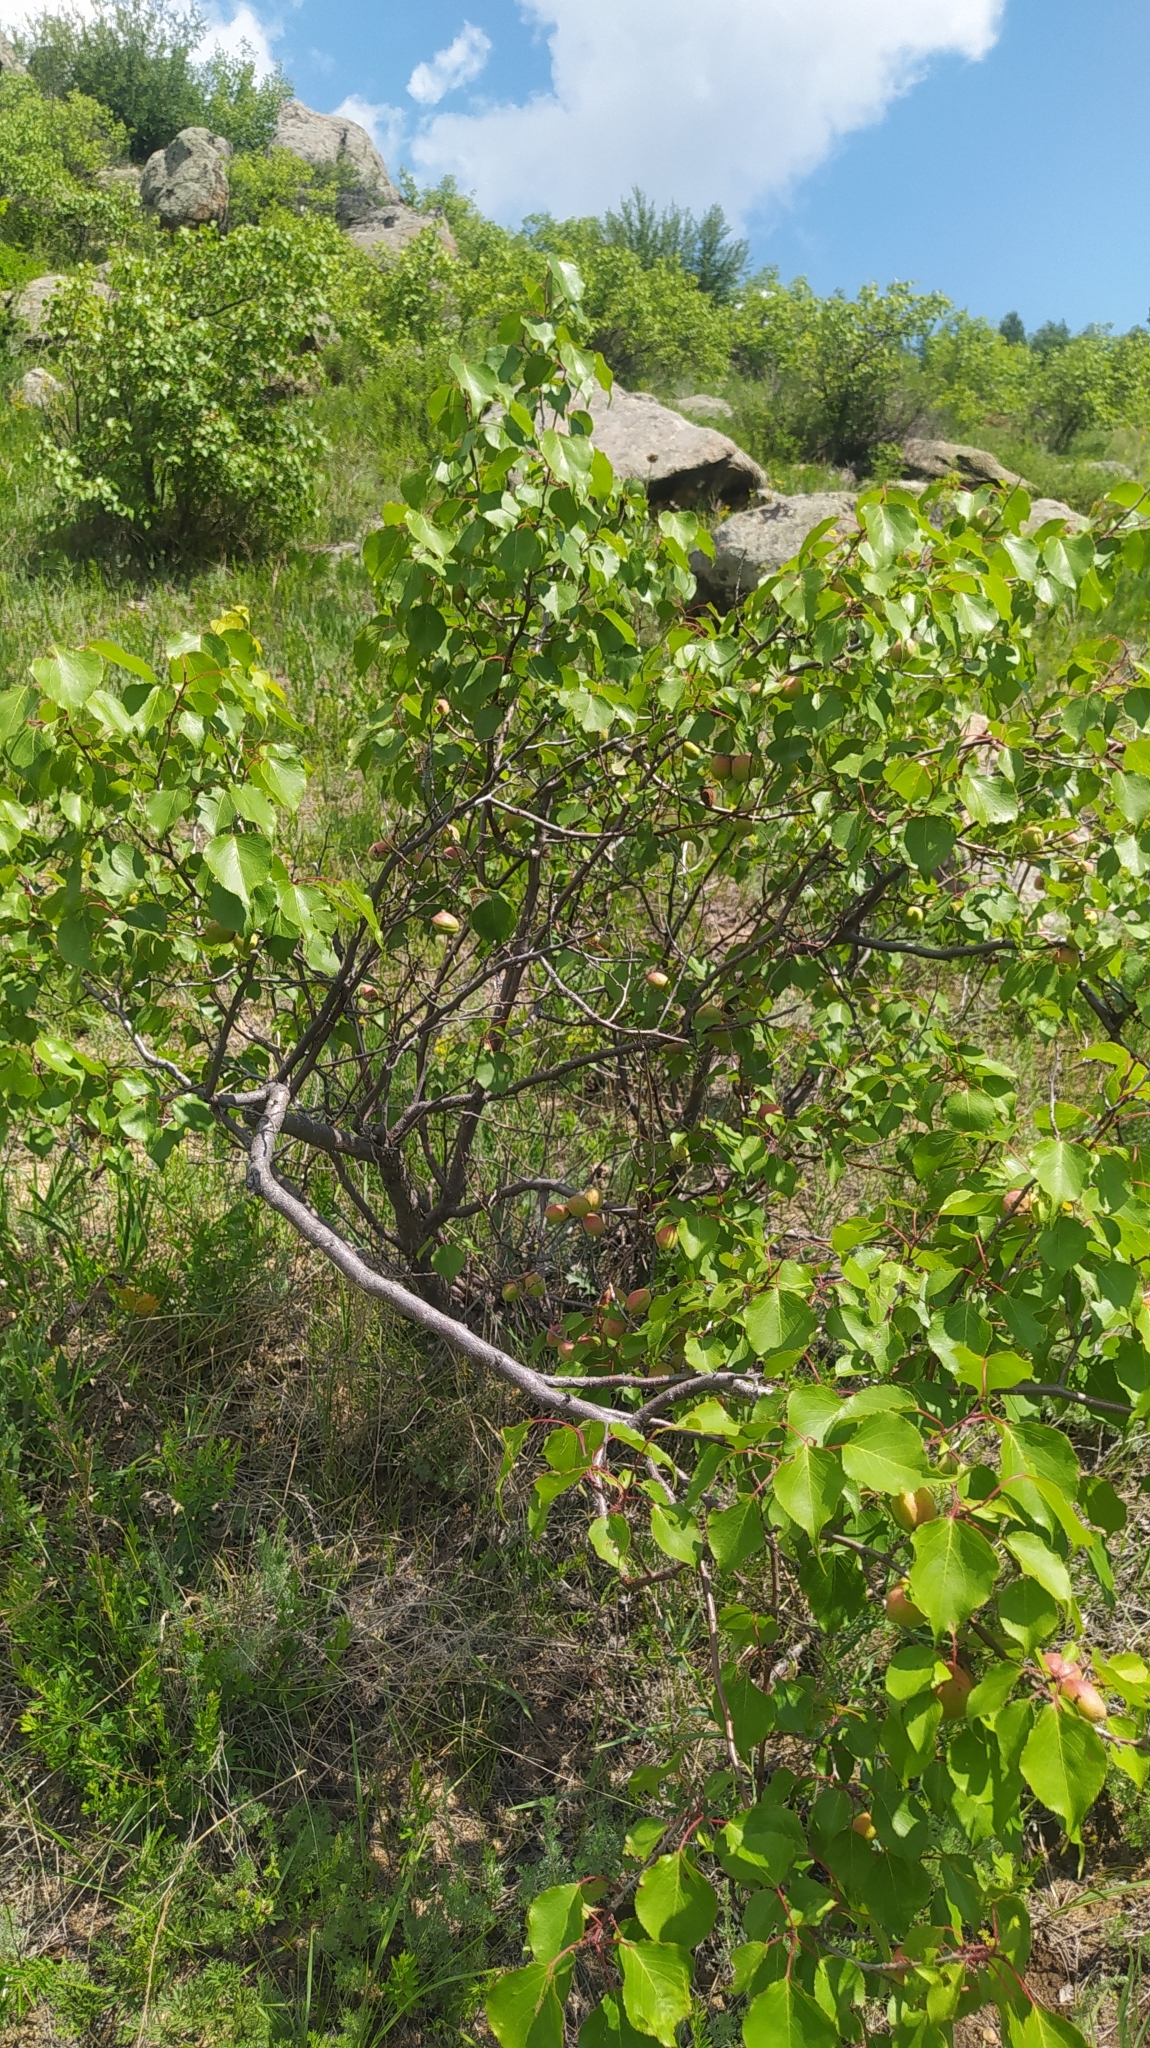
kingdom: Plantae
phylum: Tracheophyta
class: Magnoliopsida
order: Rosales
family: Rosaceae
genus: Prunus
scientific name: Prunus sibirica
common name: Siberian apricot
